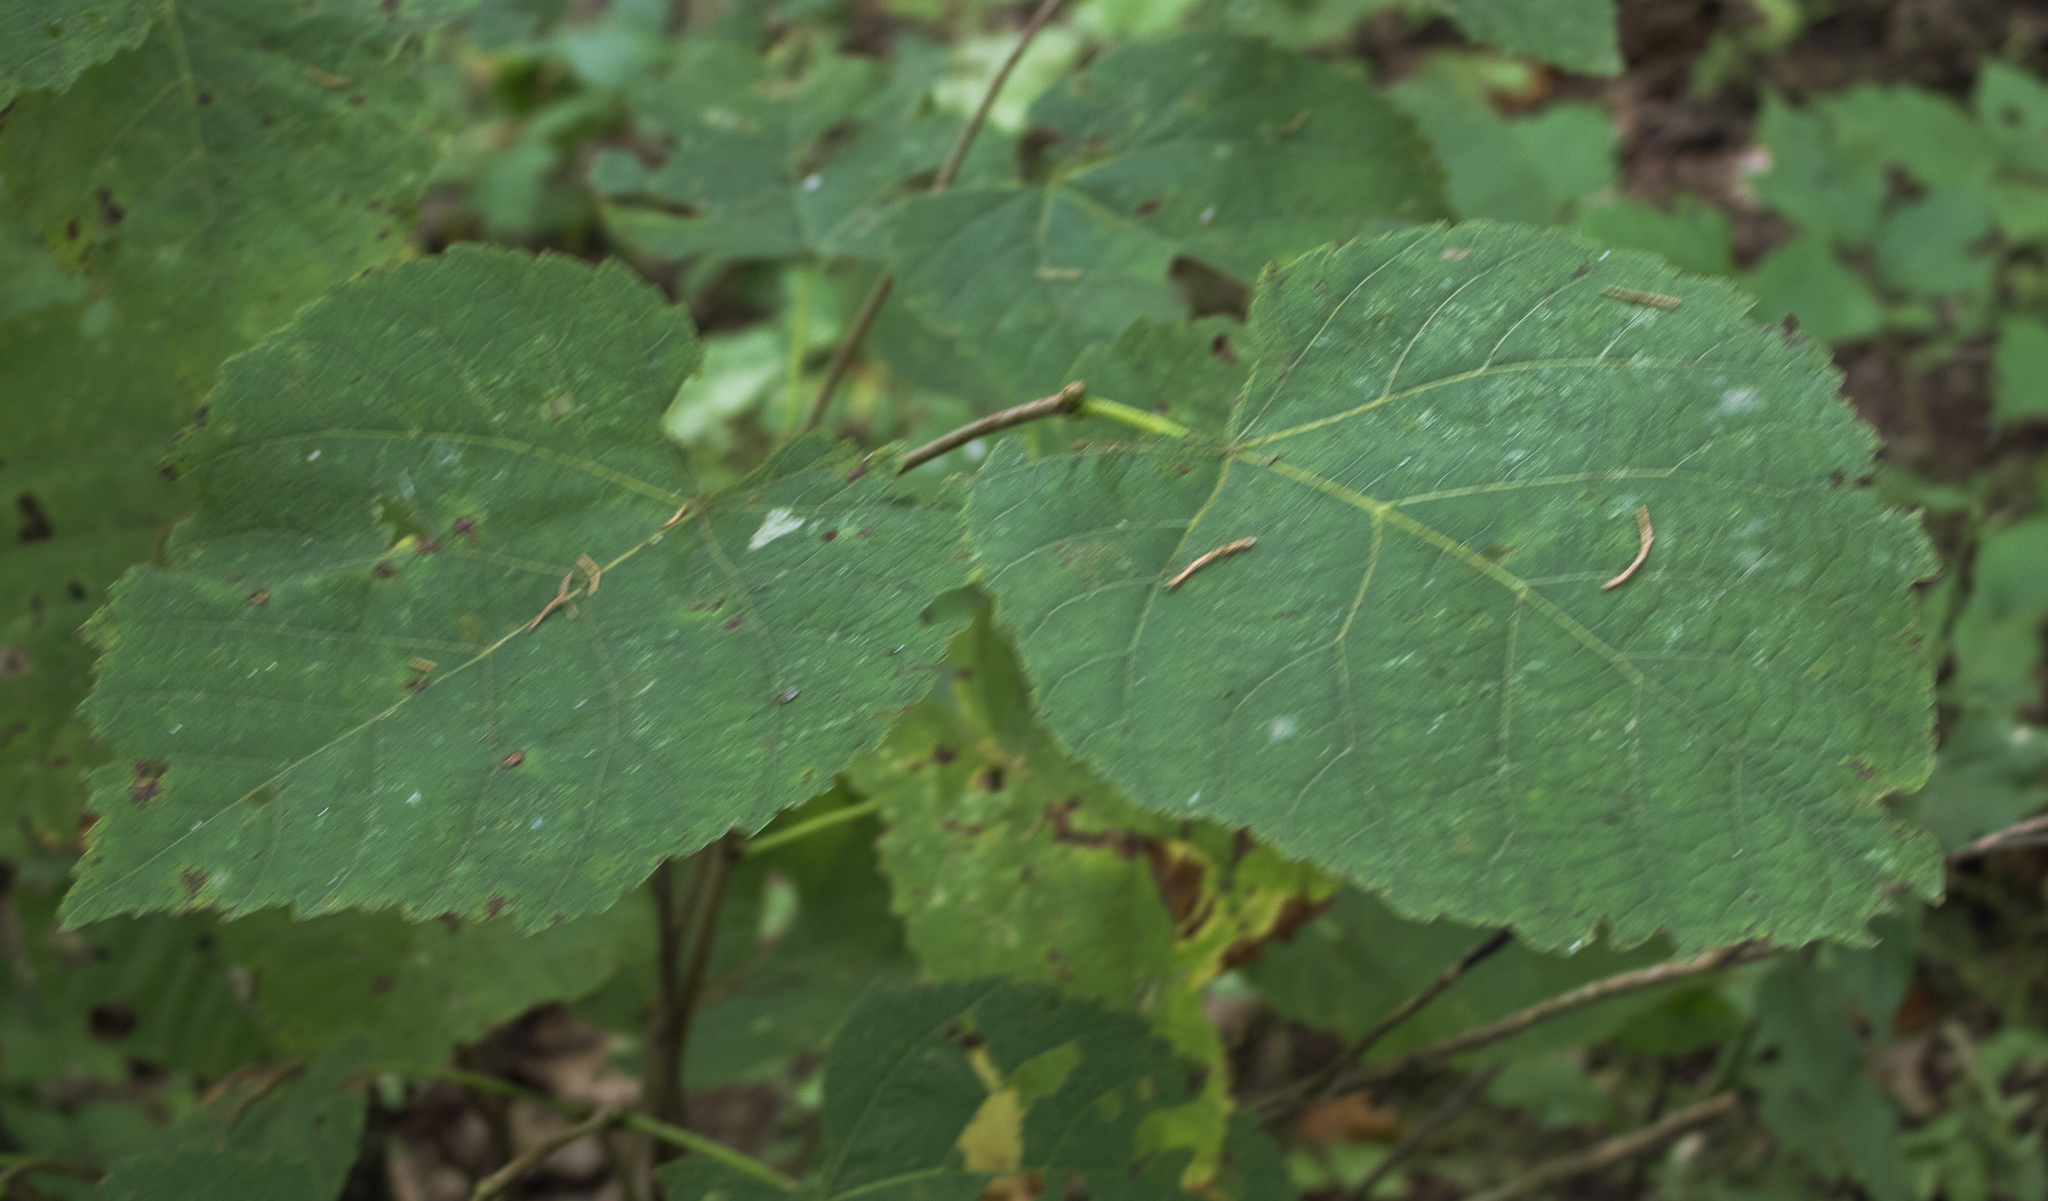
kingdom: Plantae
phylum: Tracheophyta
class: Magnoliopsida
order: Malvales
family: Malvaceae
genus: Tilia
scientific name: Tilia americana
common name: Basswood
